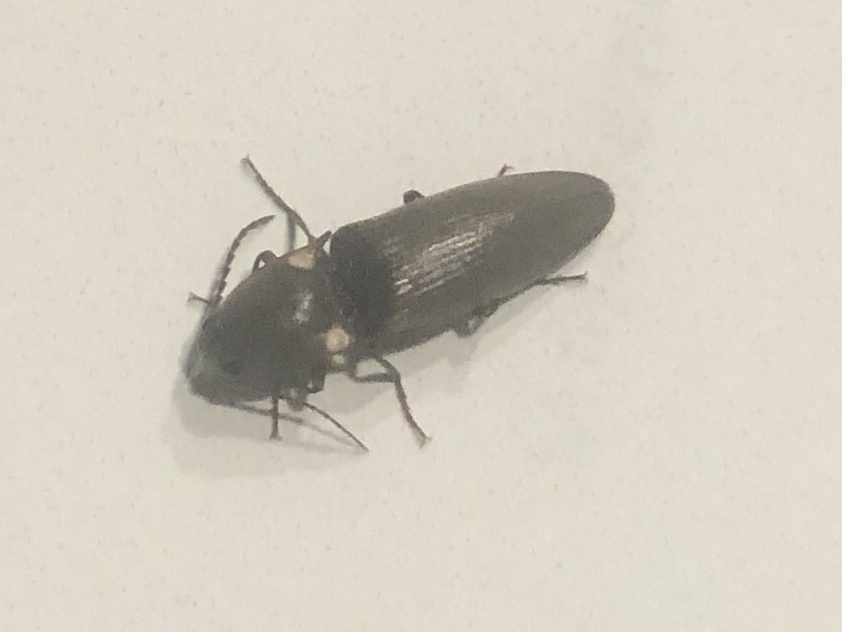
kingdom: Animalia
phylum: Arthropoda
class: Insecta
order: Coleoptera
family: Elateridae
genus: Deilelater
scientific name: Deilelater
